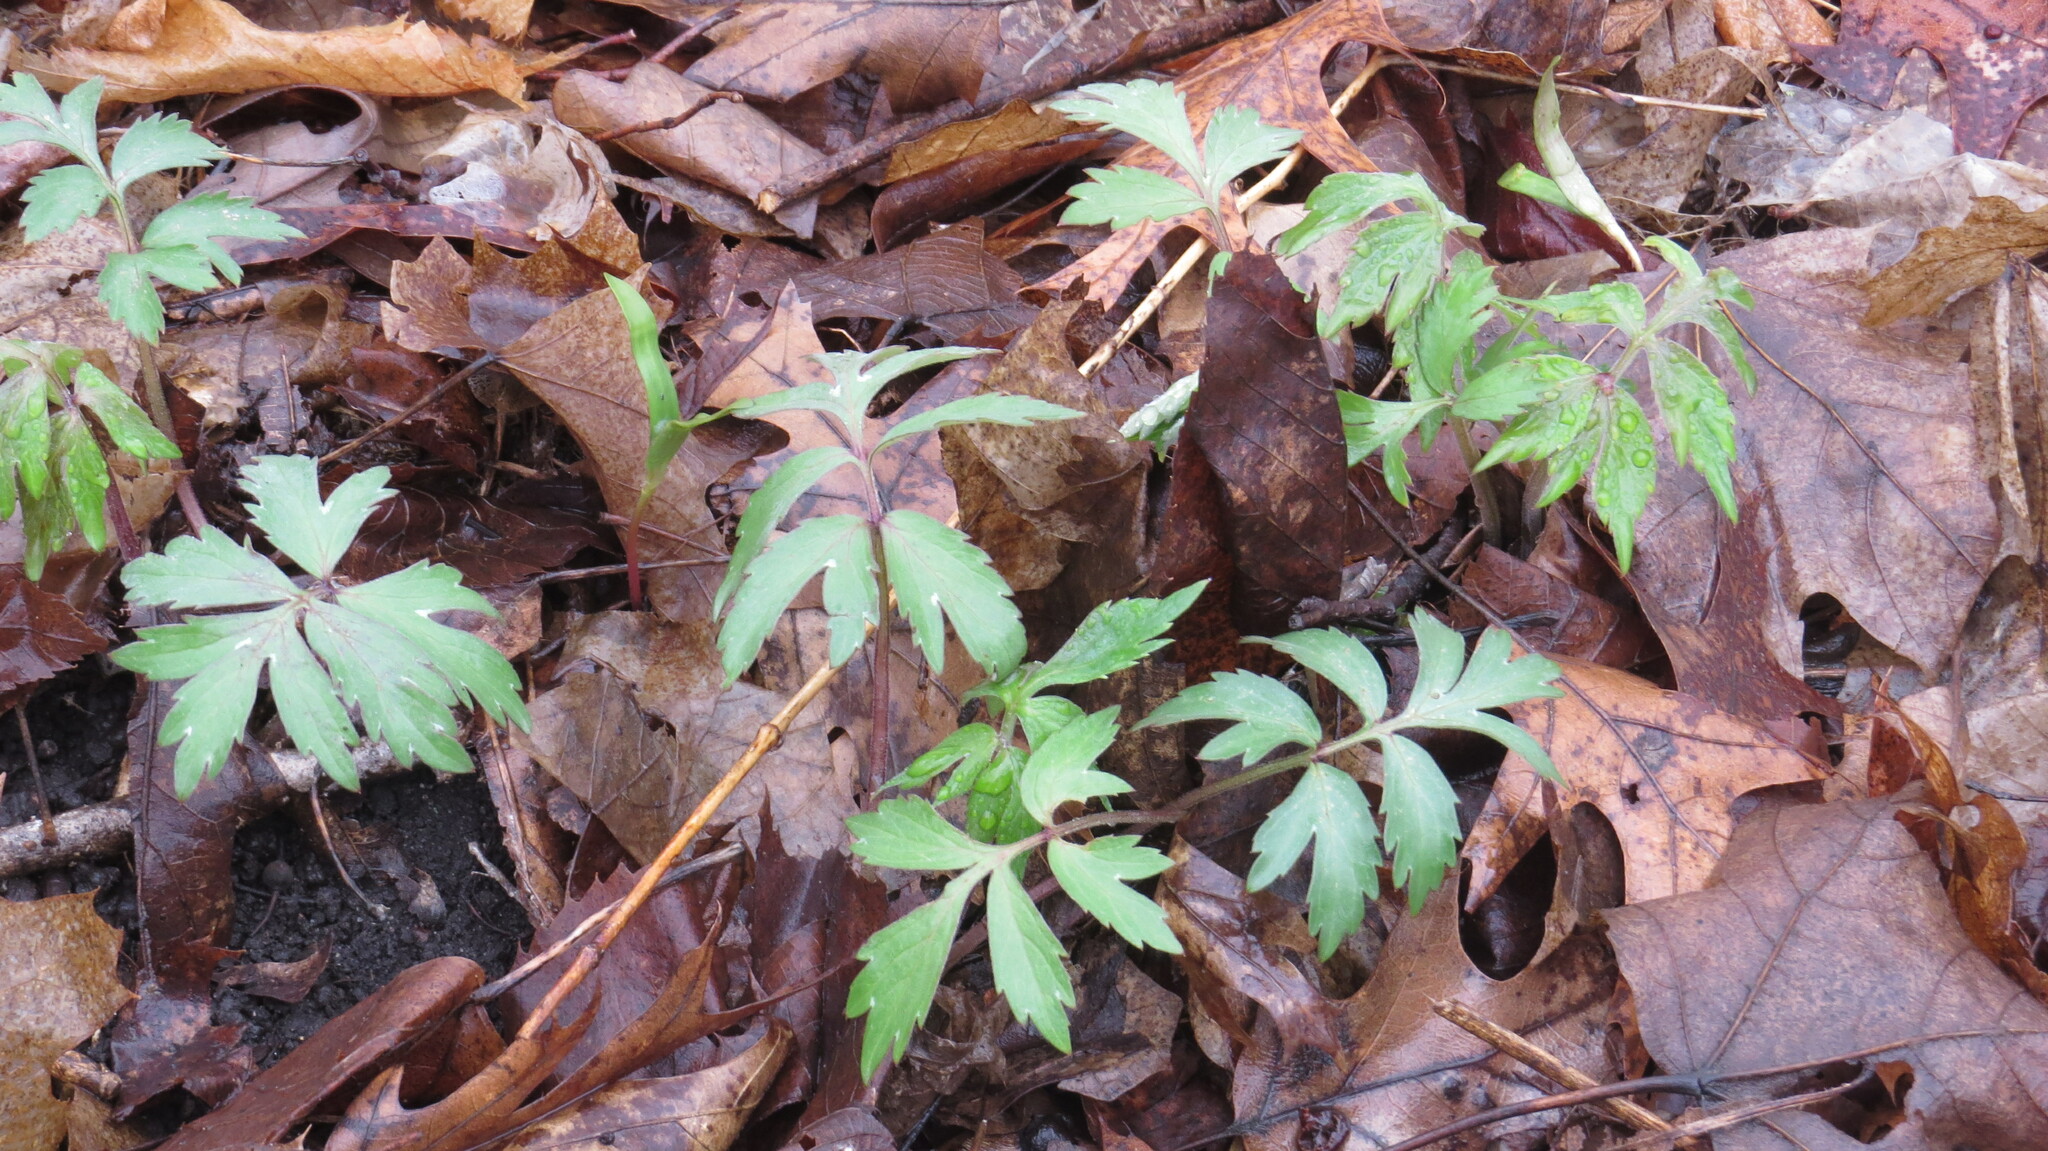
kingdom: Plantae
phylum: Tracheophyta
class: Magnoliopsida
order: Boraginales
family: Hydrophyllaceae
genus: Hydrophyllum
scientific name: Hydrophyllum virginianum
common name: Virginia waterleaf
